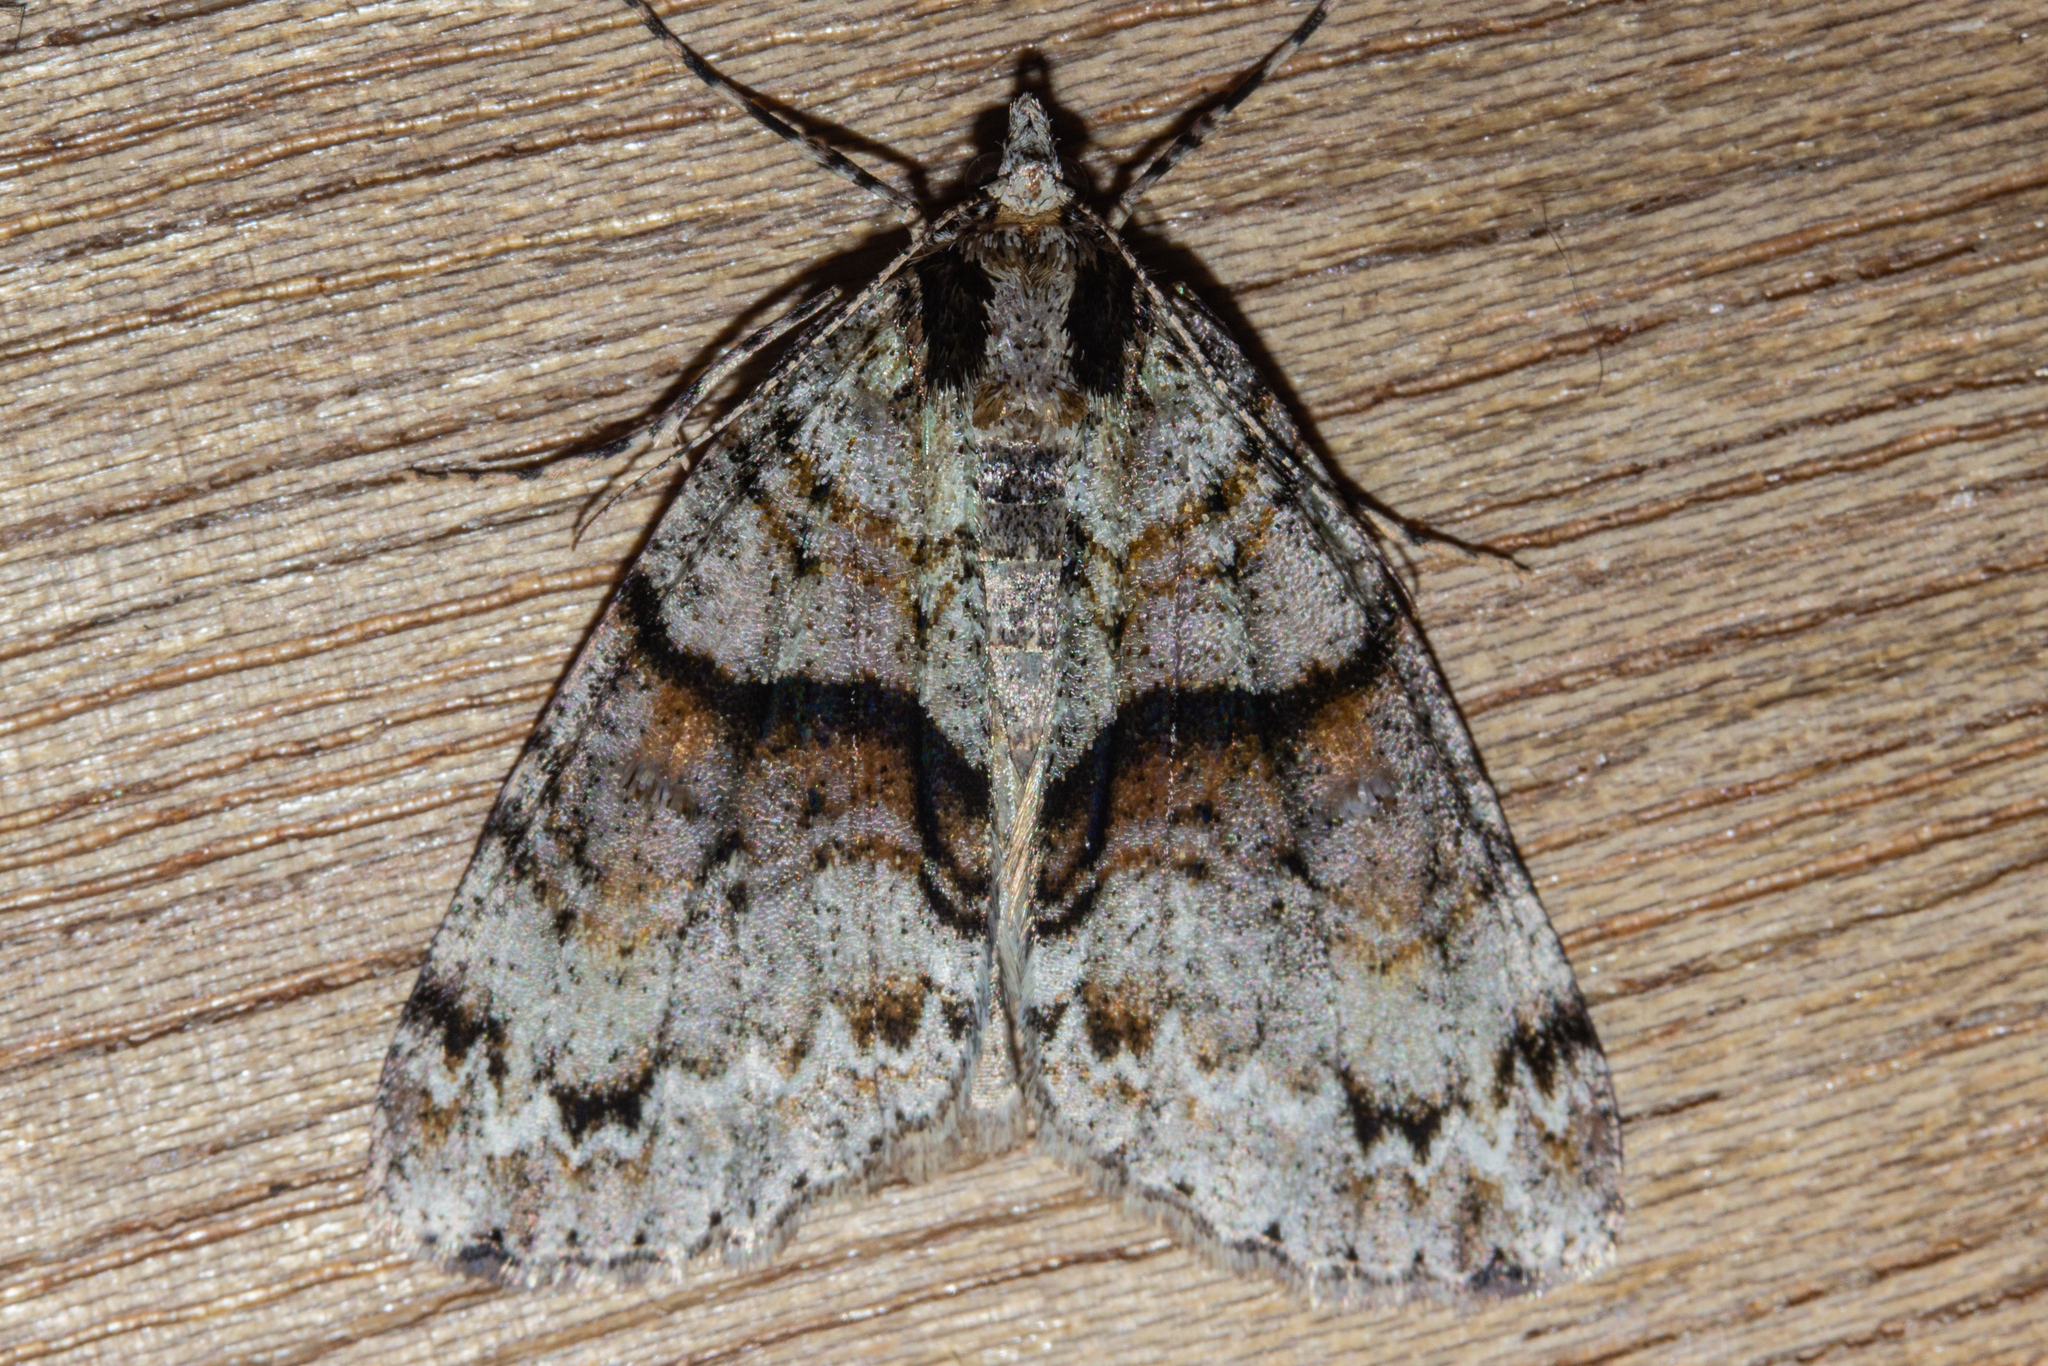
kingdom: Animalia
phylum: Arthropoda
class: Insecta
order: Lepidoptera
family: Geometridae
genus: Pseudocoremia
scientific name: Pseudocoremia suavis
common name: Common forest looper
